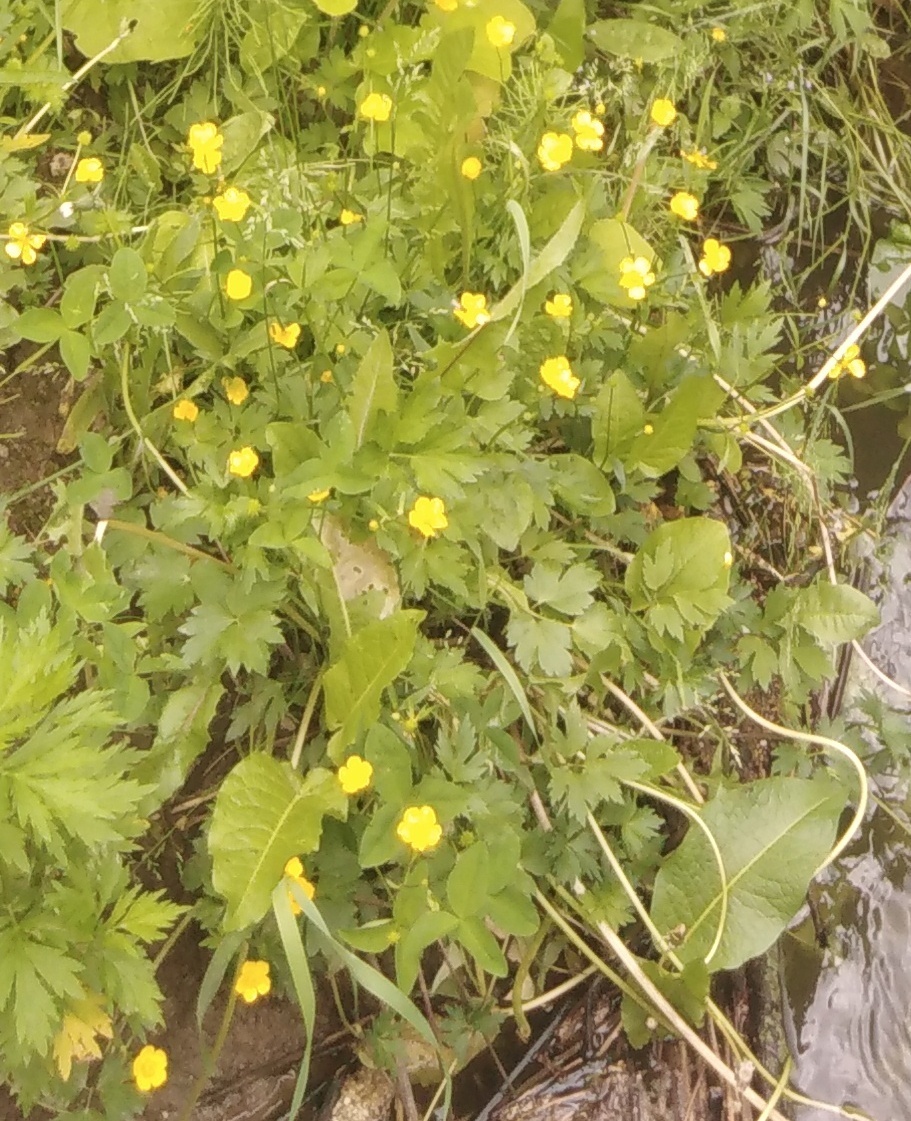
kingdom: Plantae
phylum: Tracheophyta
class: Magnoliopsida
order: Ranunculales
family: Ranunculaceae
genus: Ranunculus
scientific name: Ranunculus repens
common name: Creeping buttercup
